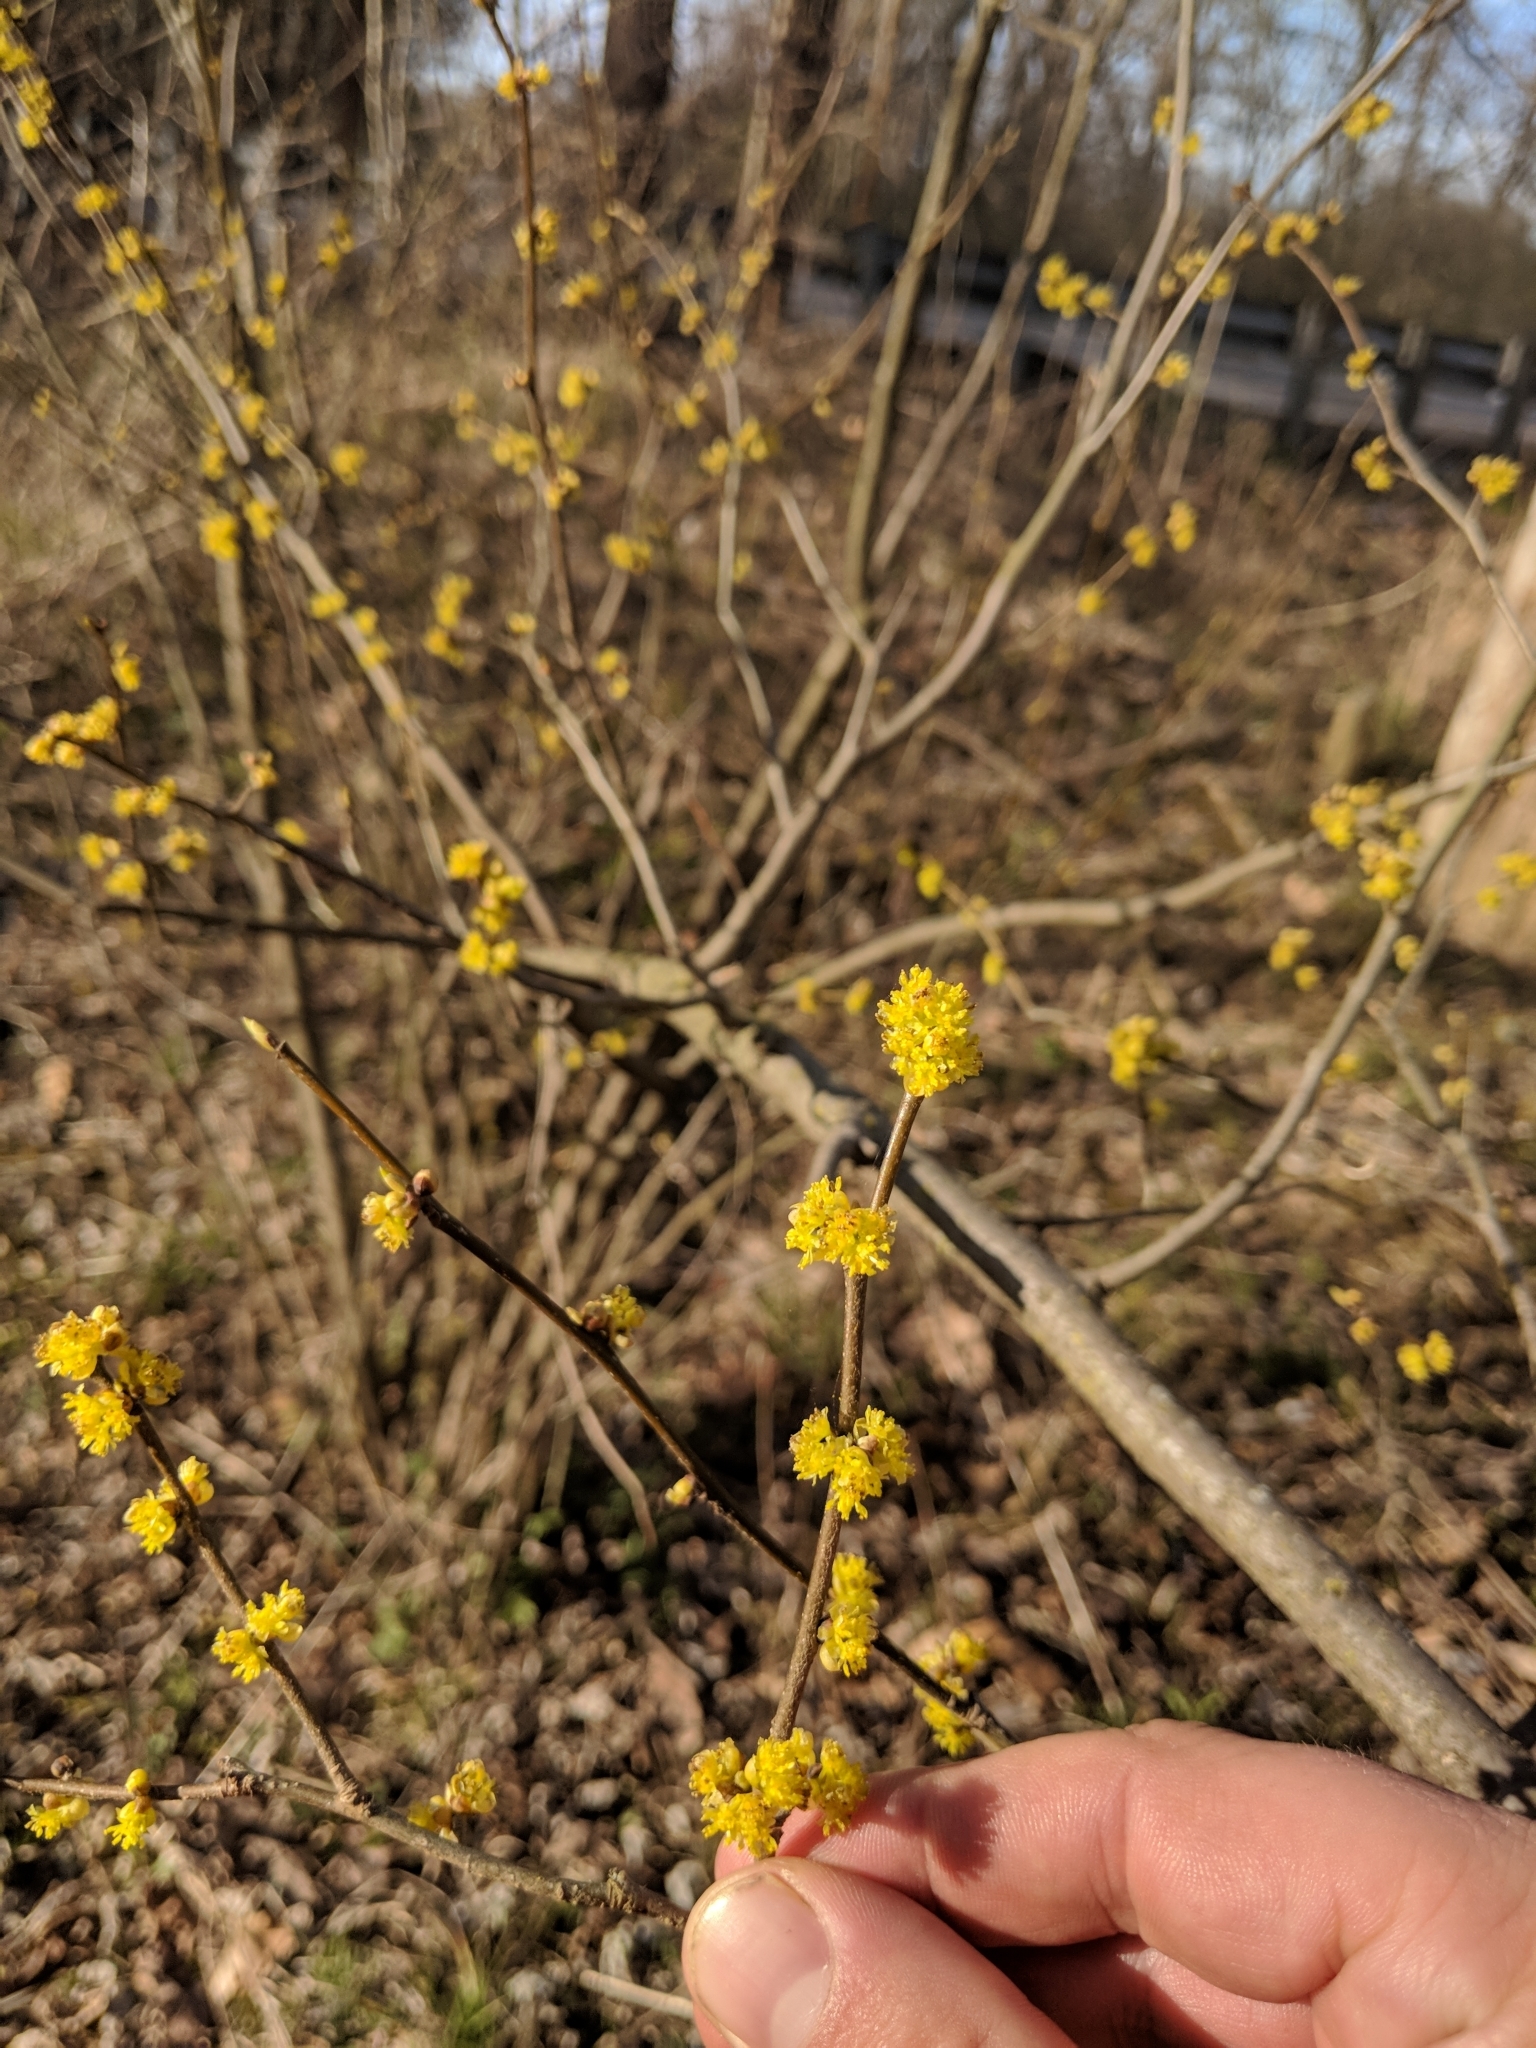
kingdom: Plantae
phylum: Tracheophyta
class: Magnoliopsida
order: Laurales
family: Lauraceae
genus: Lindera
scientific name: Lindera benzoin
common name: Spicebush
